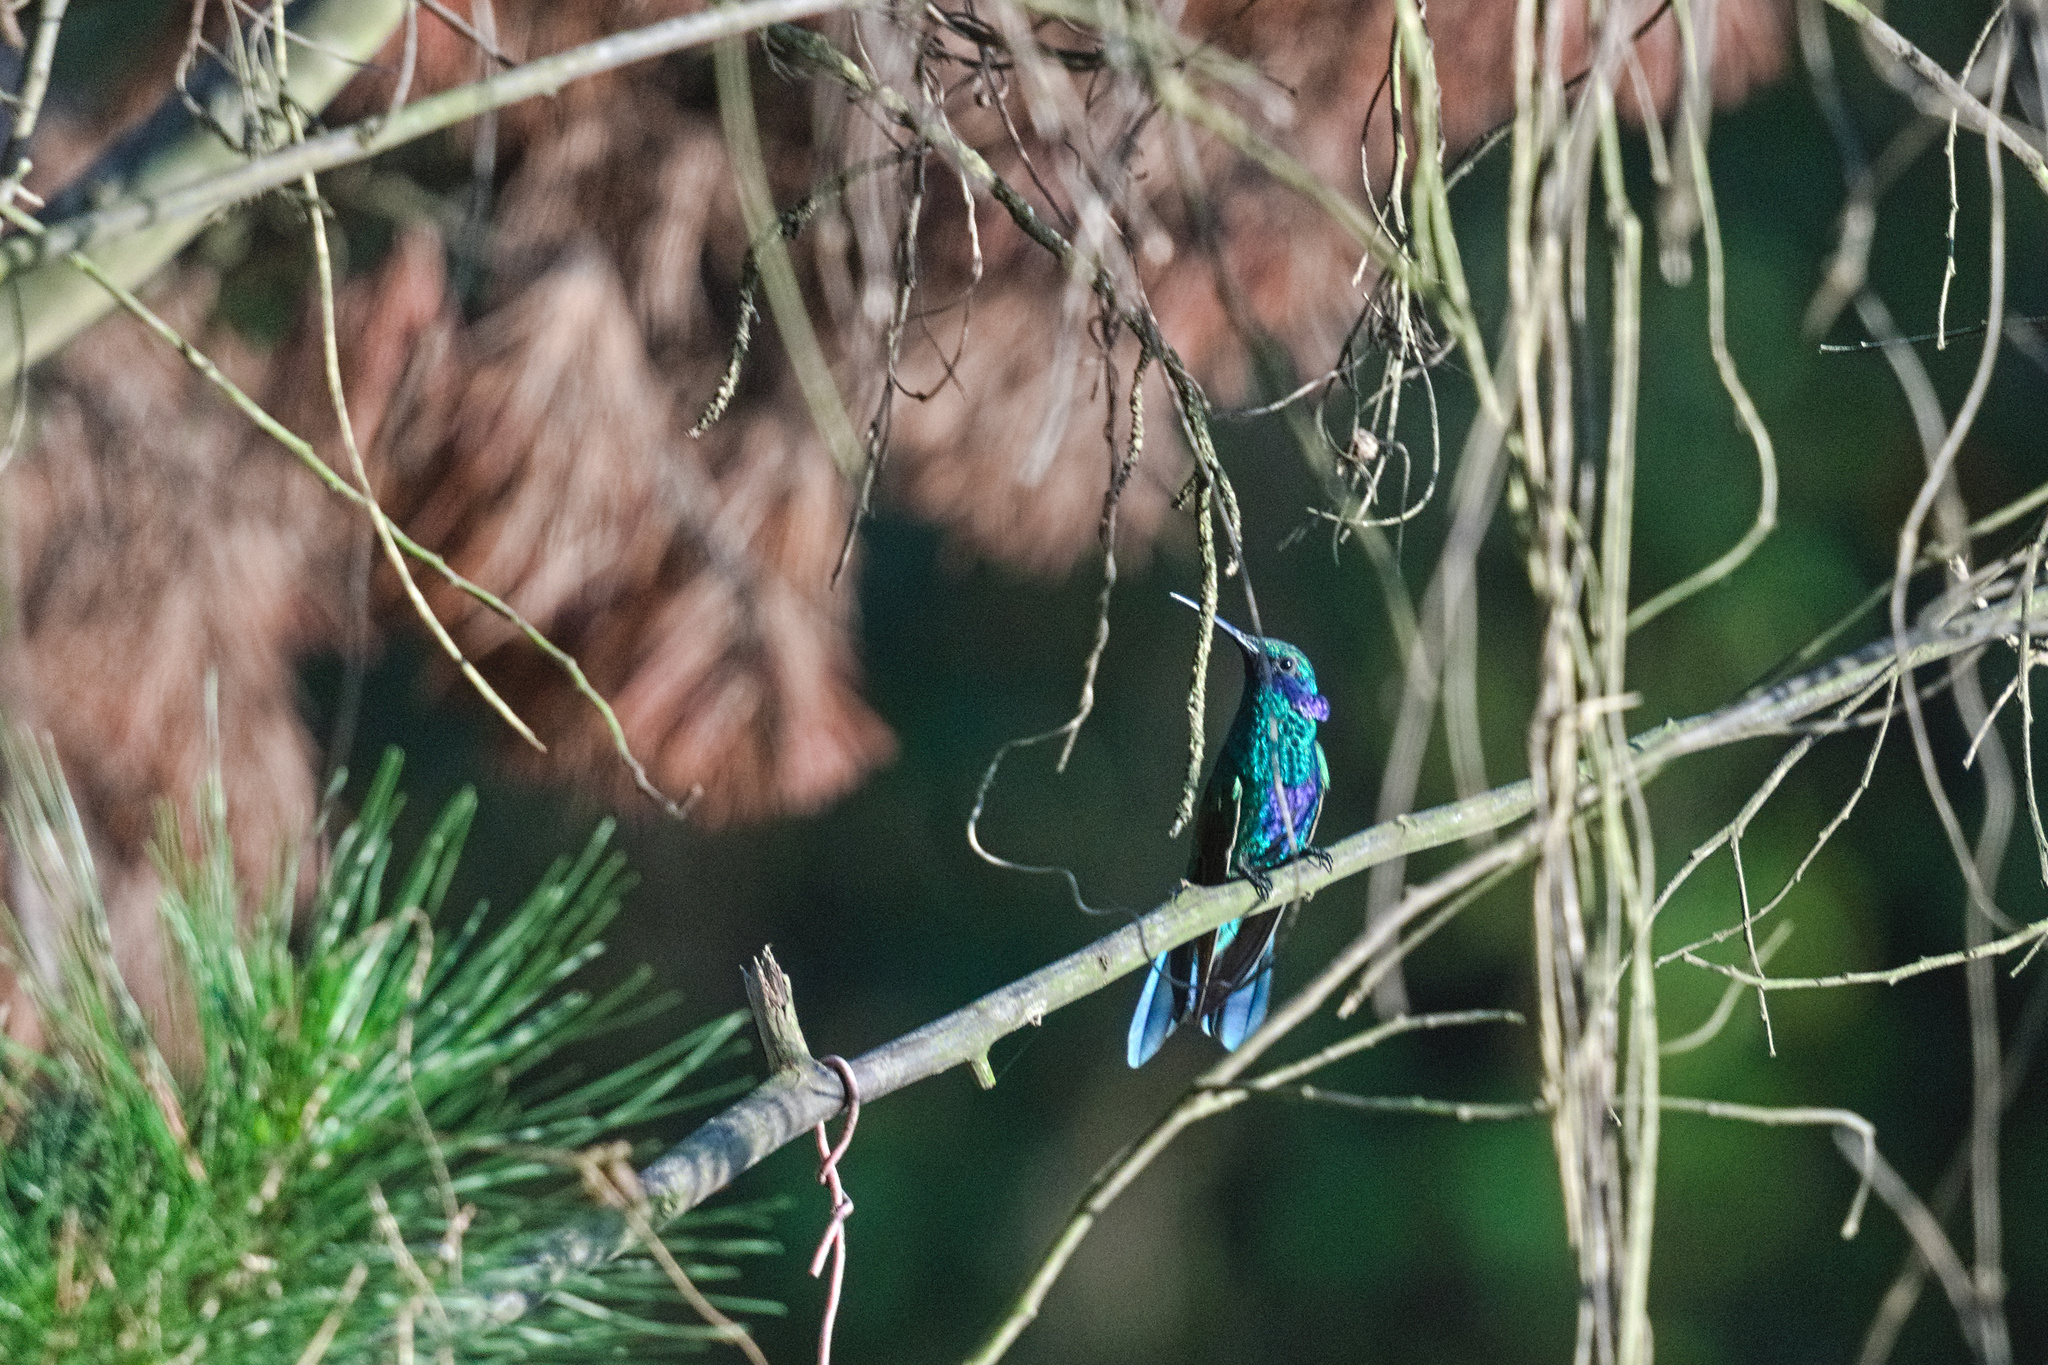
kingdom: Animalia
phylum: Chordata
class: Aves
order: Apodiformes
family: Trochilidae
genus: Colibri
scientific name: Colibri coruscans
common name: Sparkling violetear
